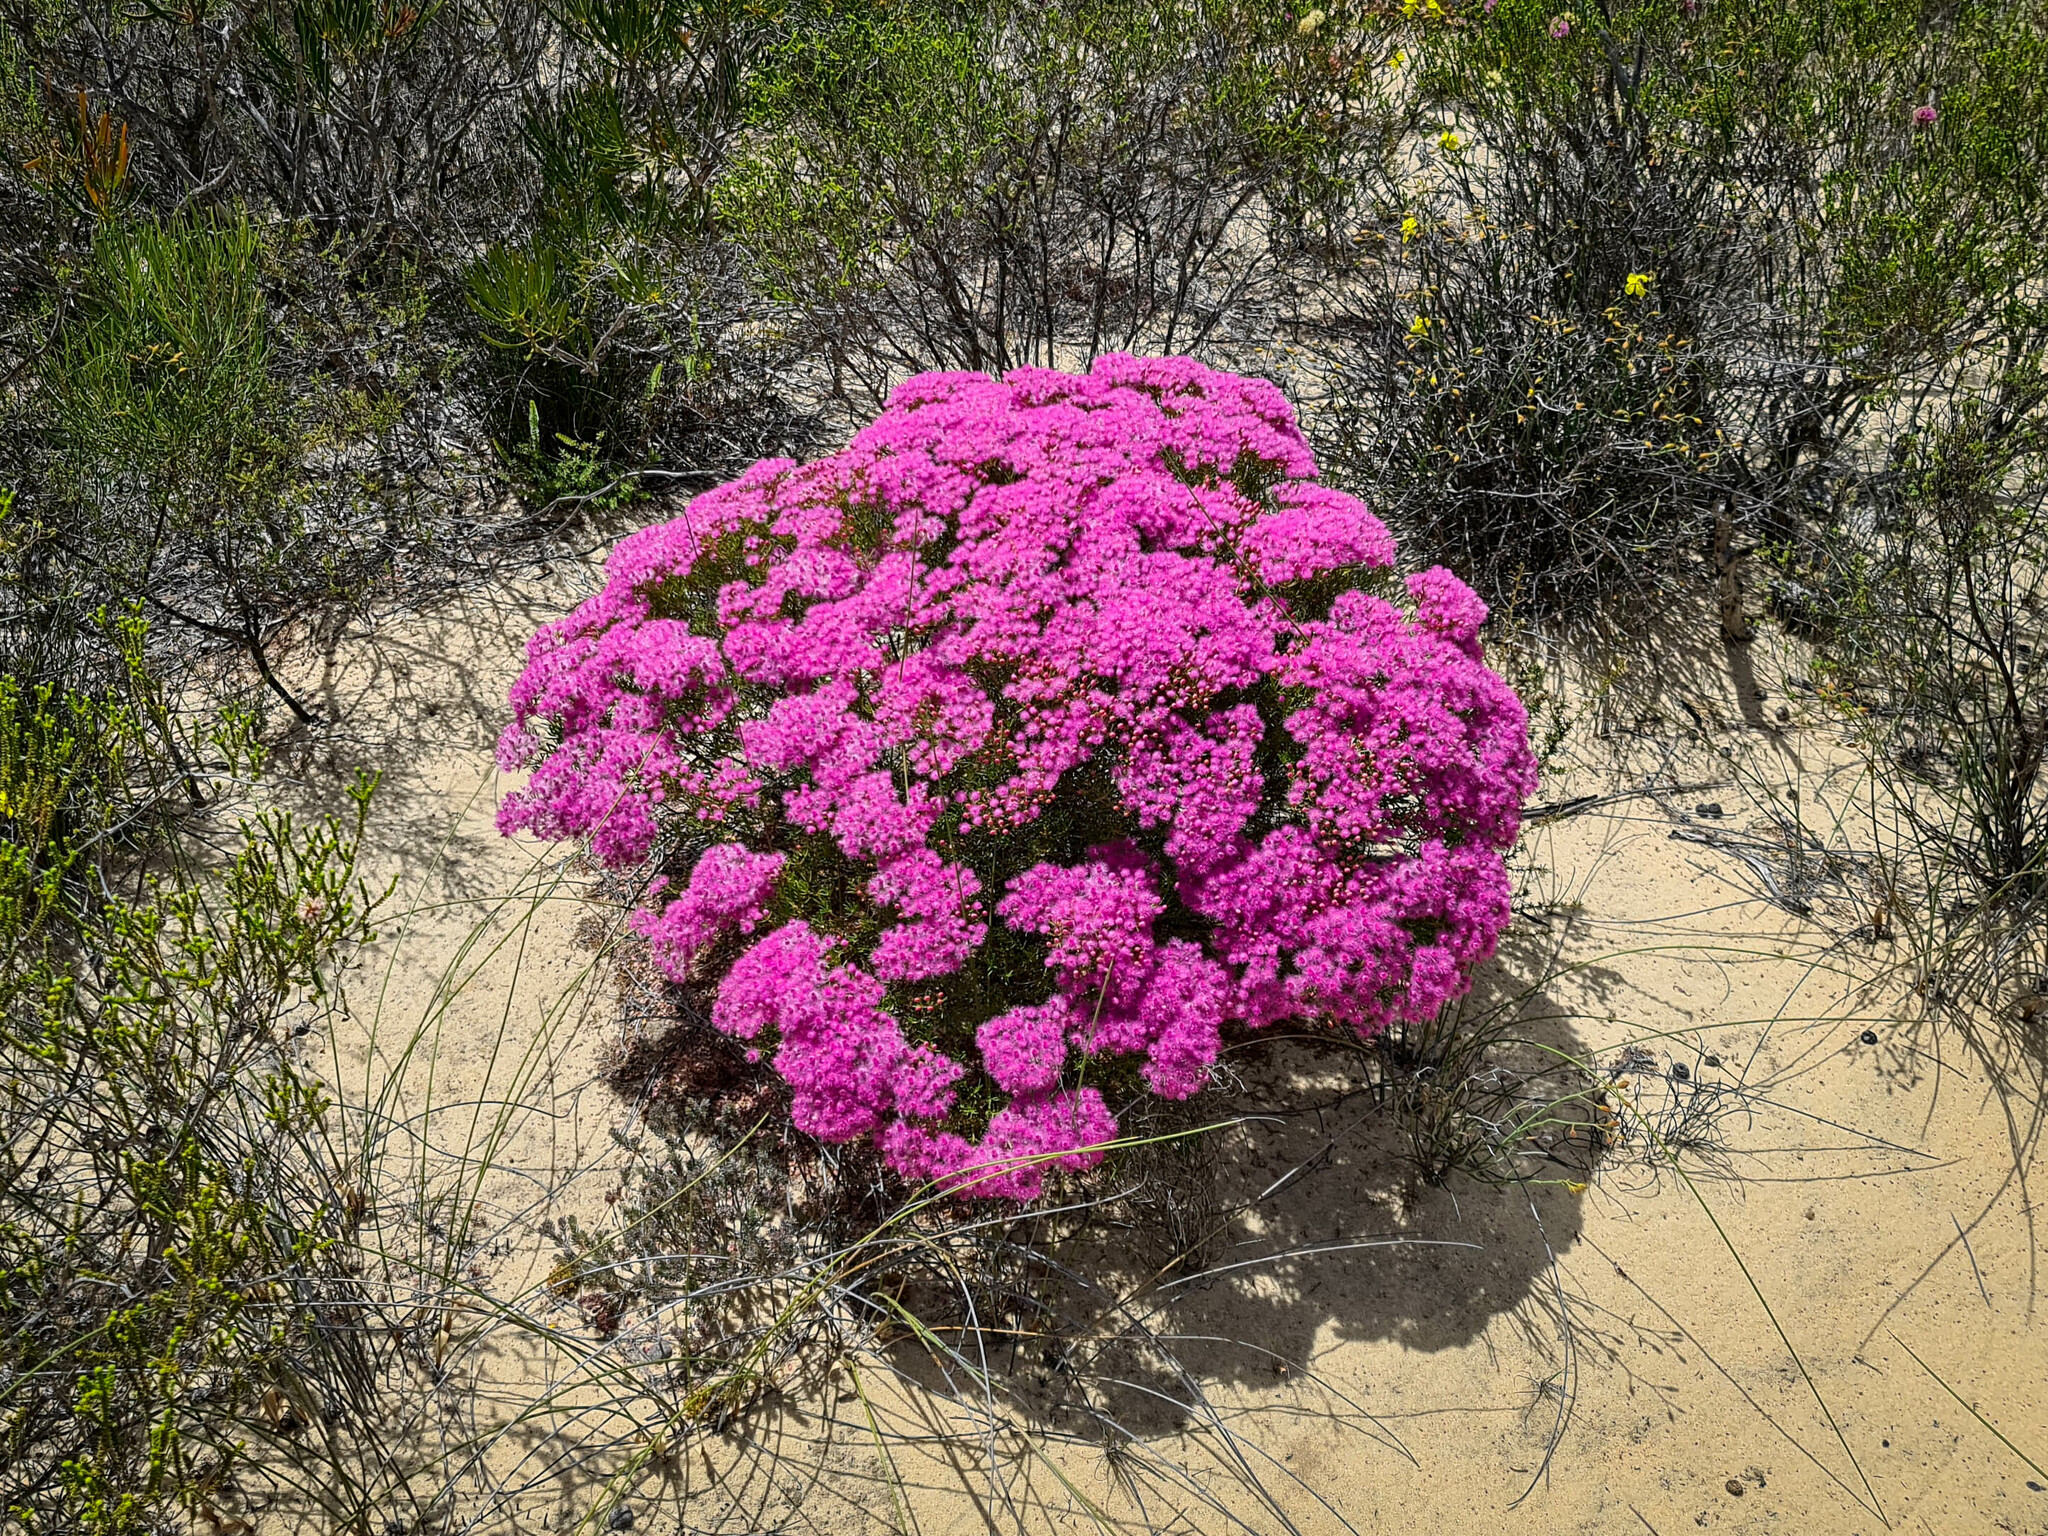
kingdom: Plantae
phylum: Tracheophyta
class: Magnoliopsida
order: Myrtales
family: Myrtaceae
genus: Verticordia
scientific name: Verticordia monadelpha
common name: Woolly feather-flower
